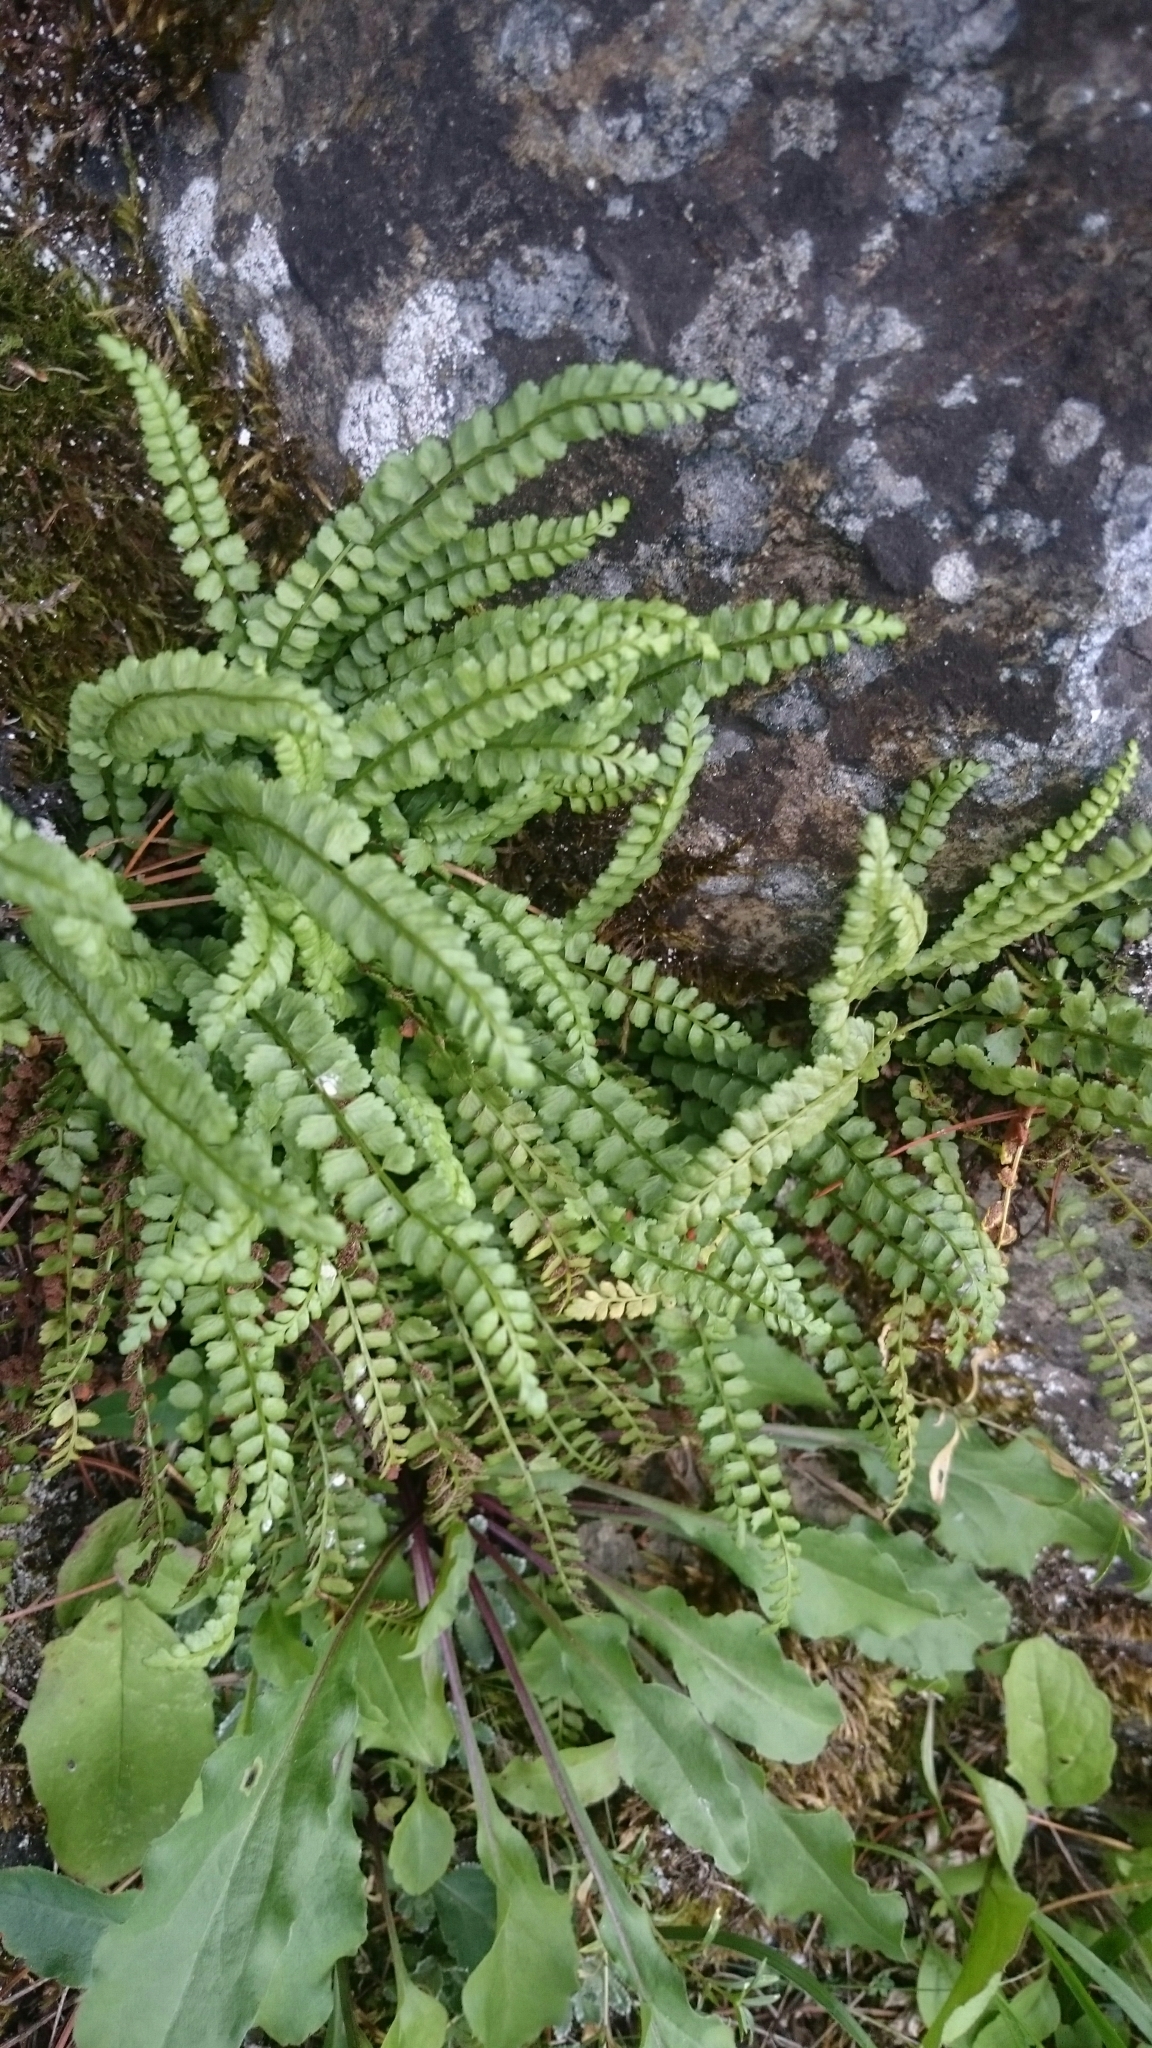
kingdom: Plantae
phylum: Tracheophyta
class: Polypodiopsida
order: Polypodiales
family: Aspleniaceae
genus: Asplenium
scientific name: Asplenium viride
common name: Green spleenwort
